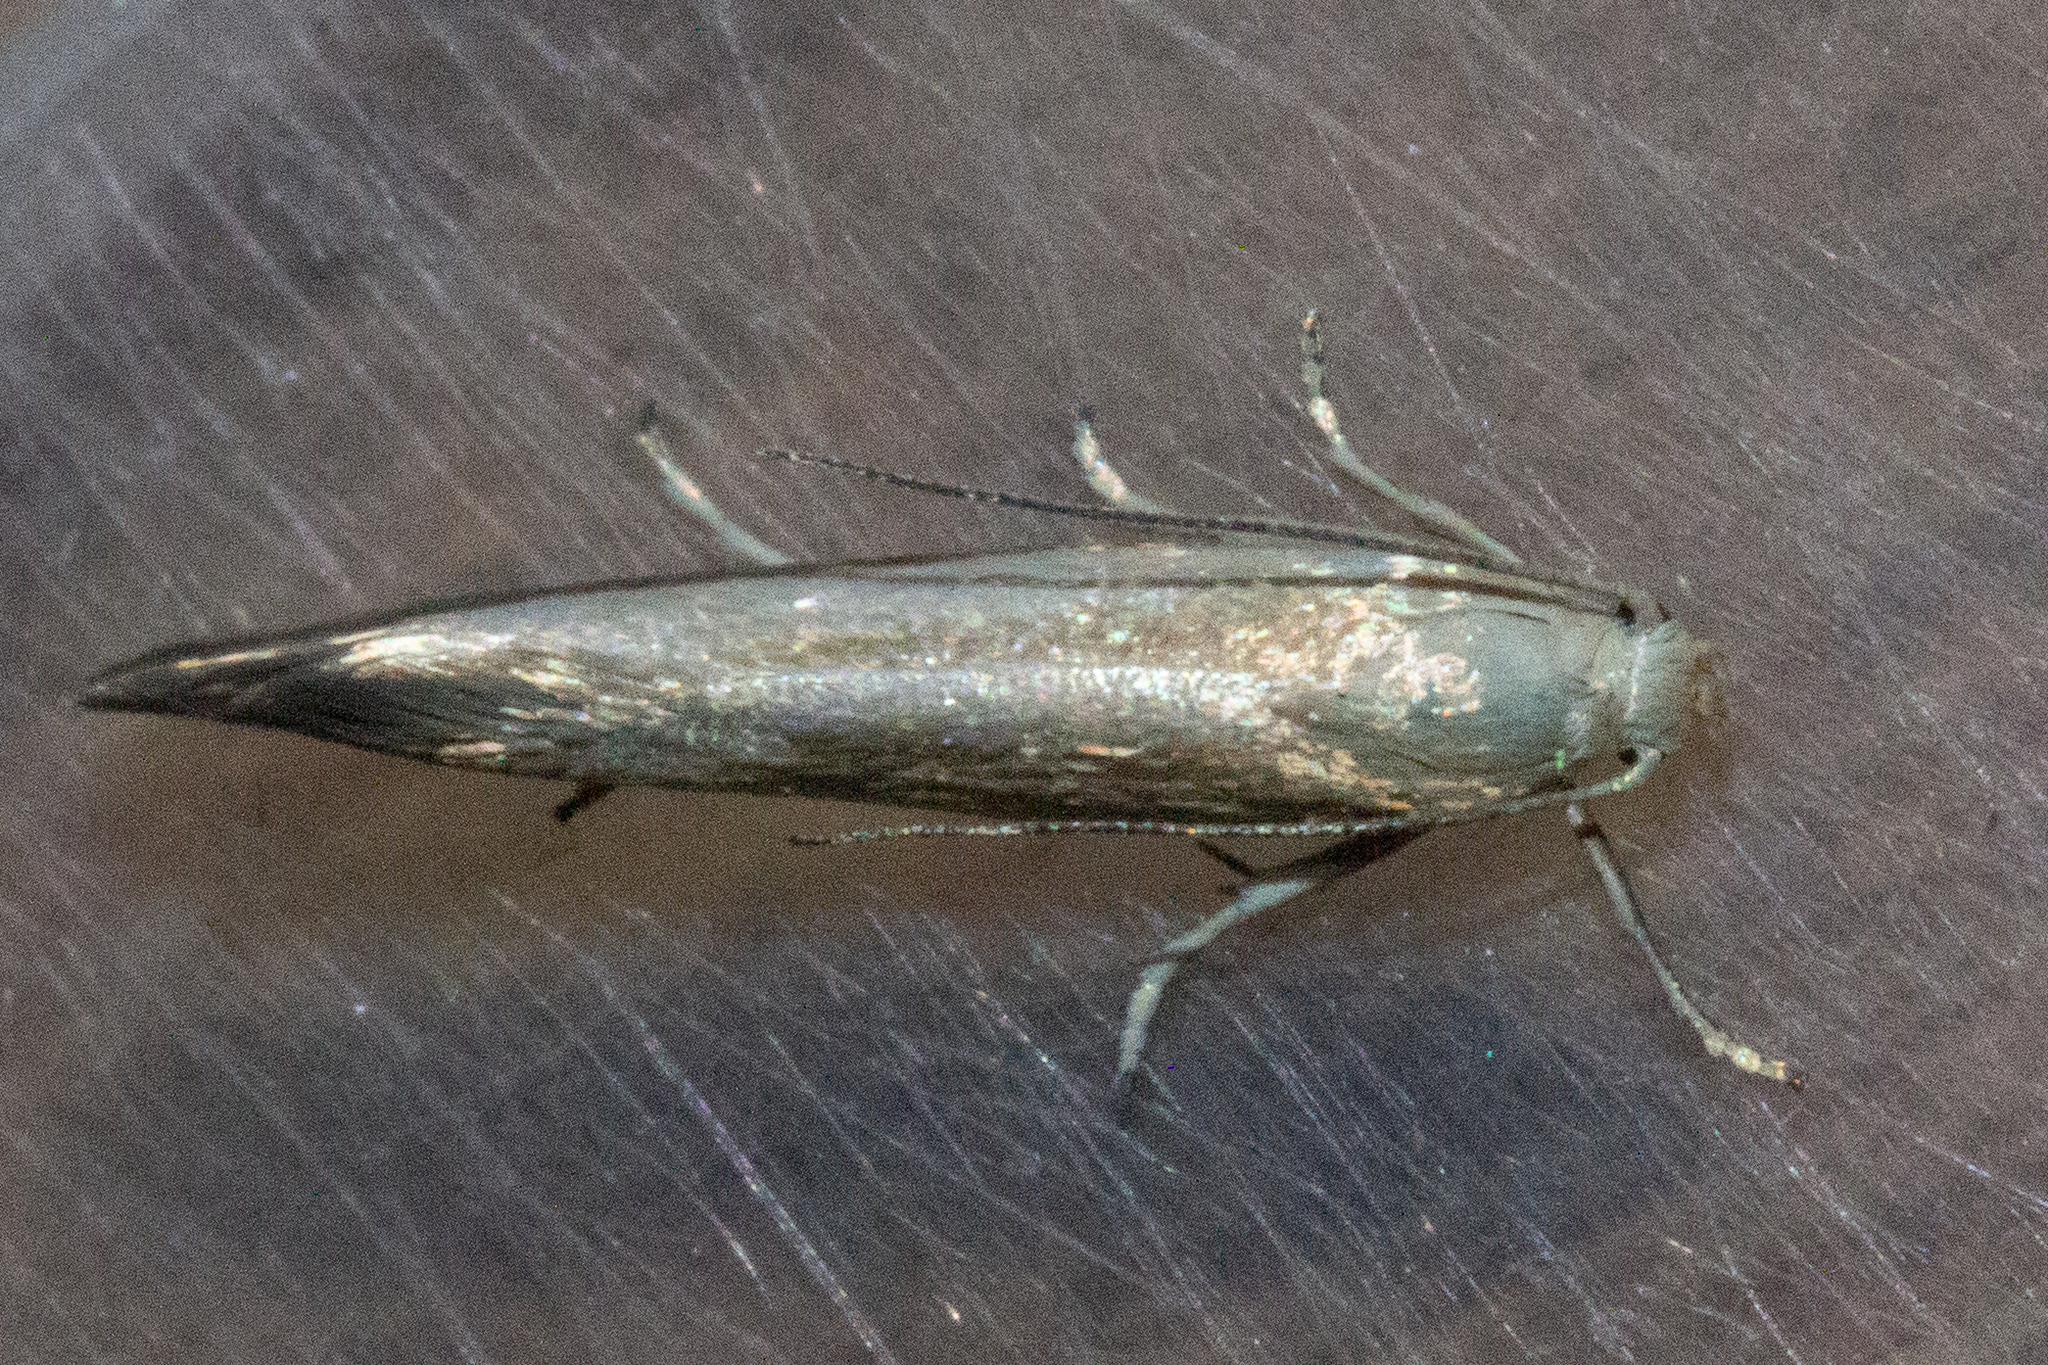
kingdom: Animalia
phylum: Arthropoda
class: Insecta
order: Lepidoptera
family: Glyphipterigidae
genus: Glyphipterix
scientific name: Glyphipterix cionophora
